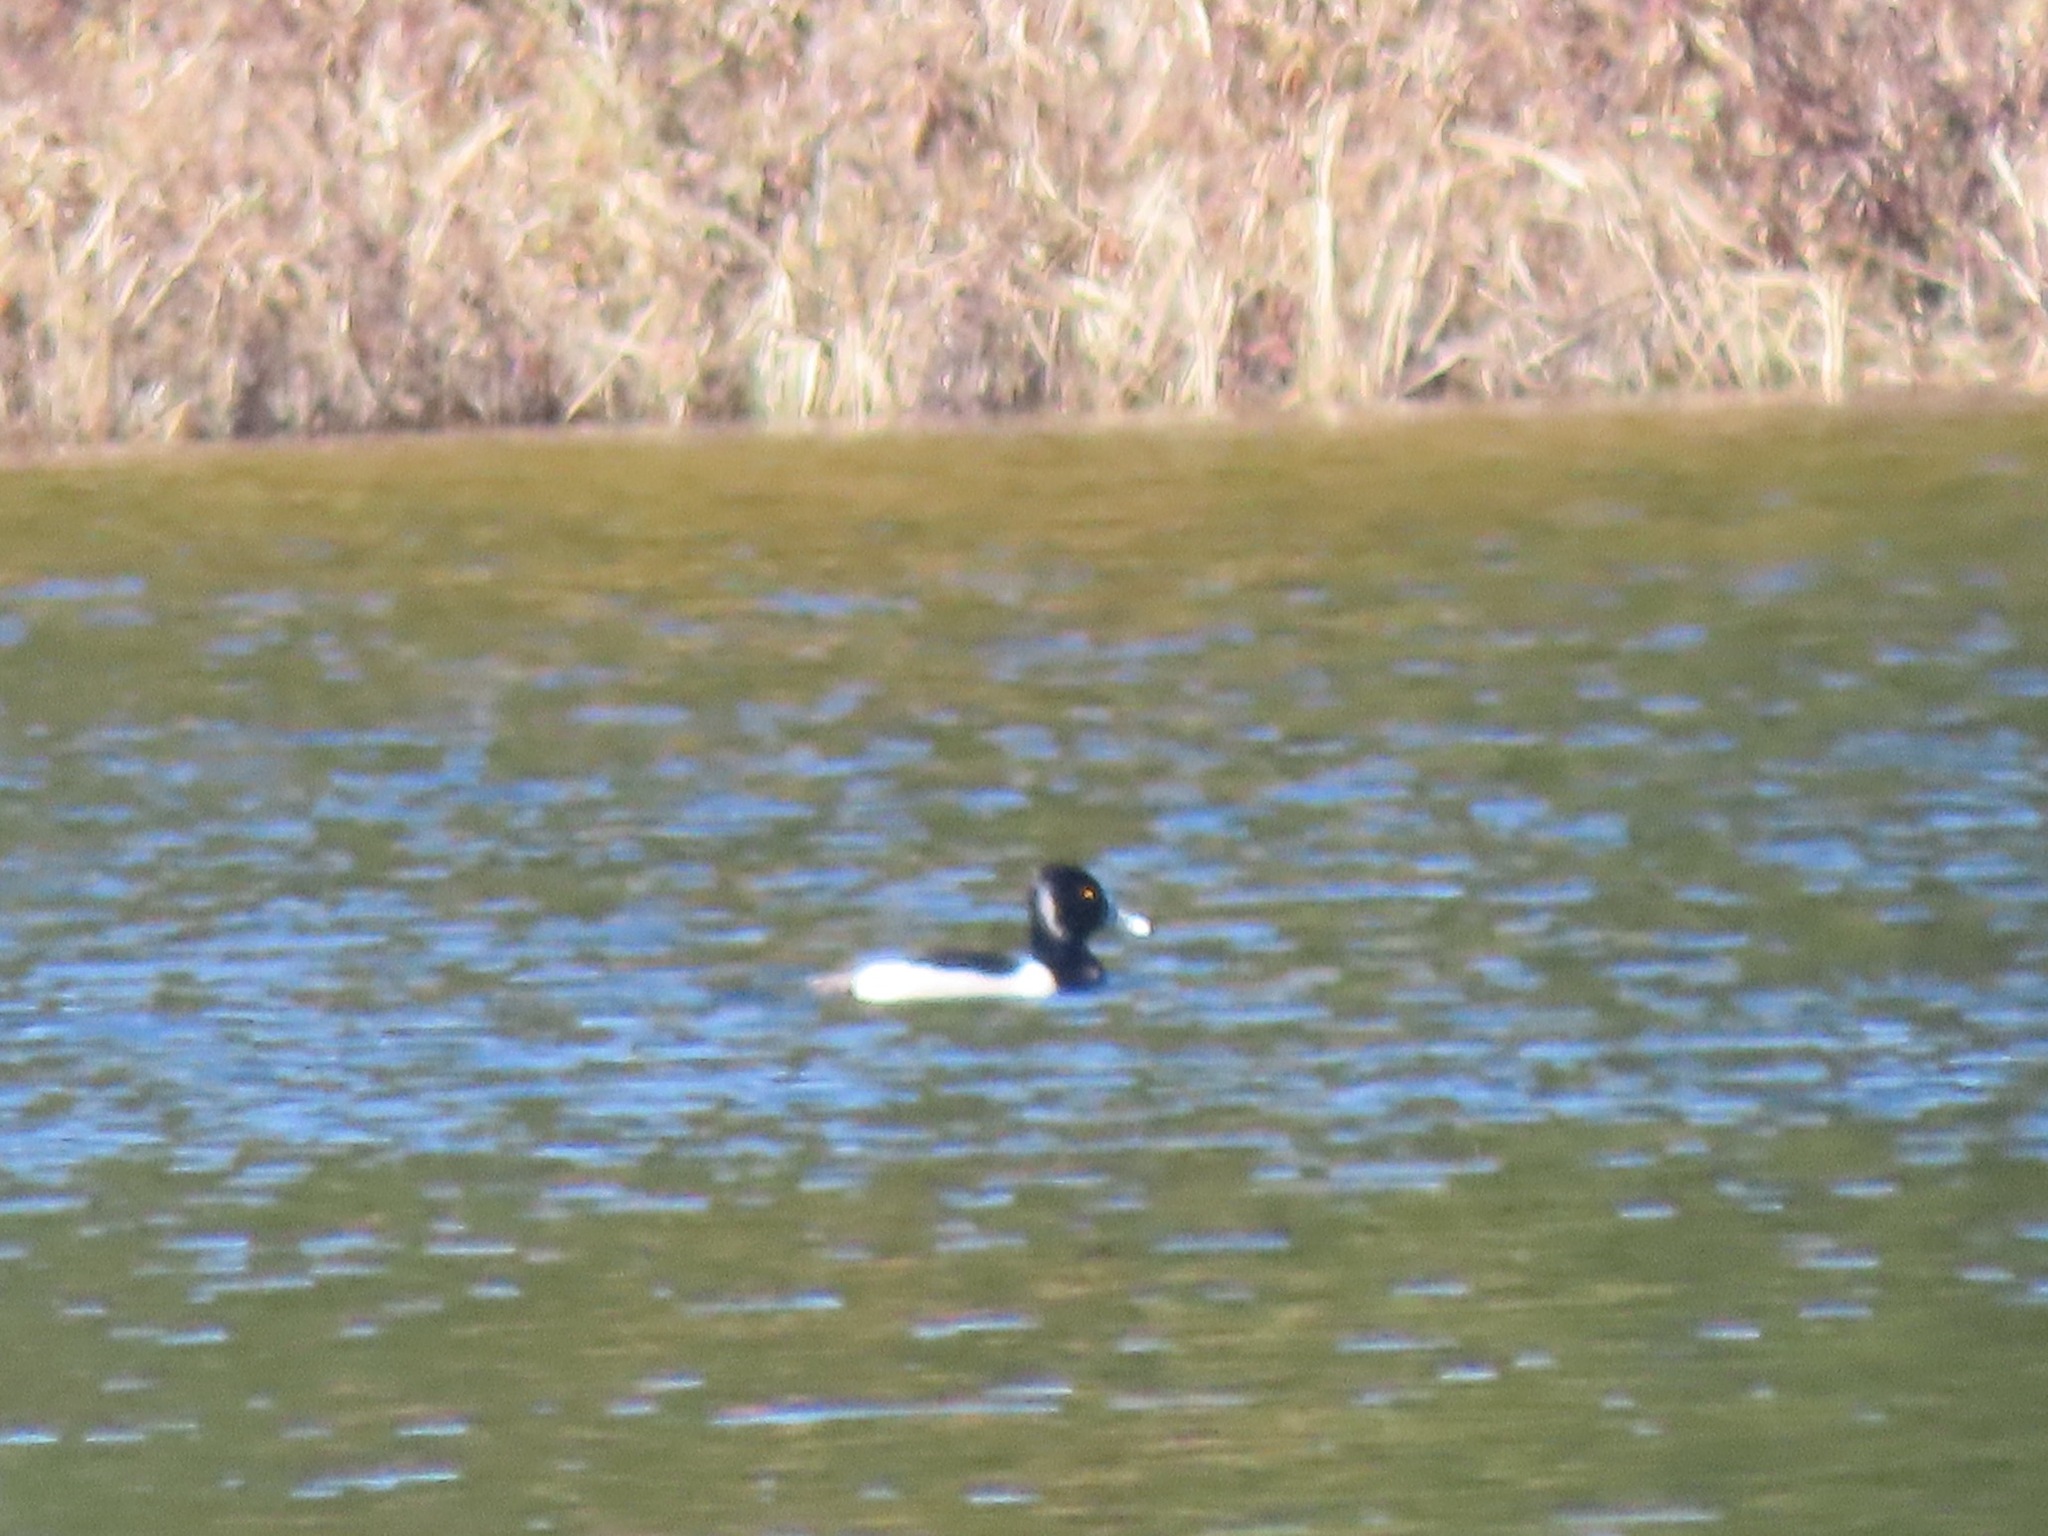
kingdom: Animalia
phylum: Chordata
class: Aves
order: Anseriformes
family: Anatidae
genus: Aythya
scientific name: Aythya collaris
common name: Ring-necked duck
